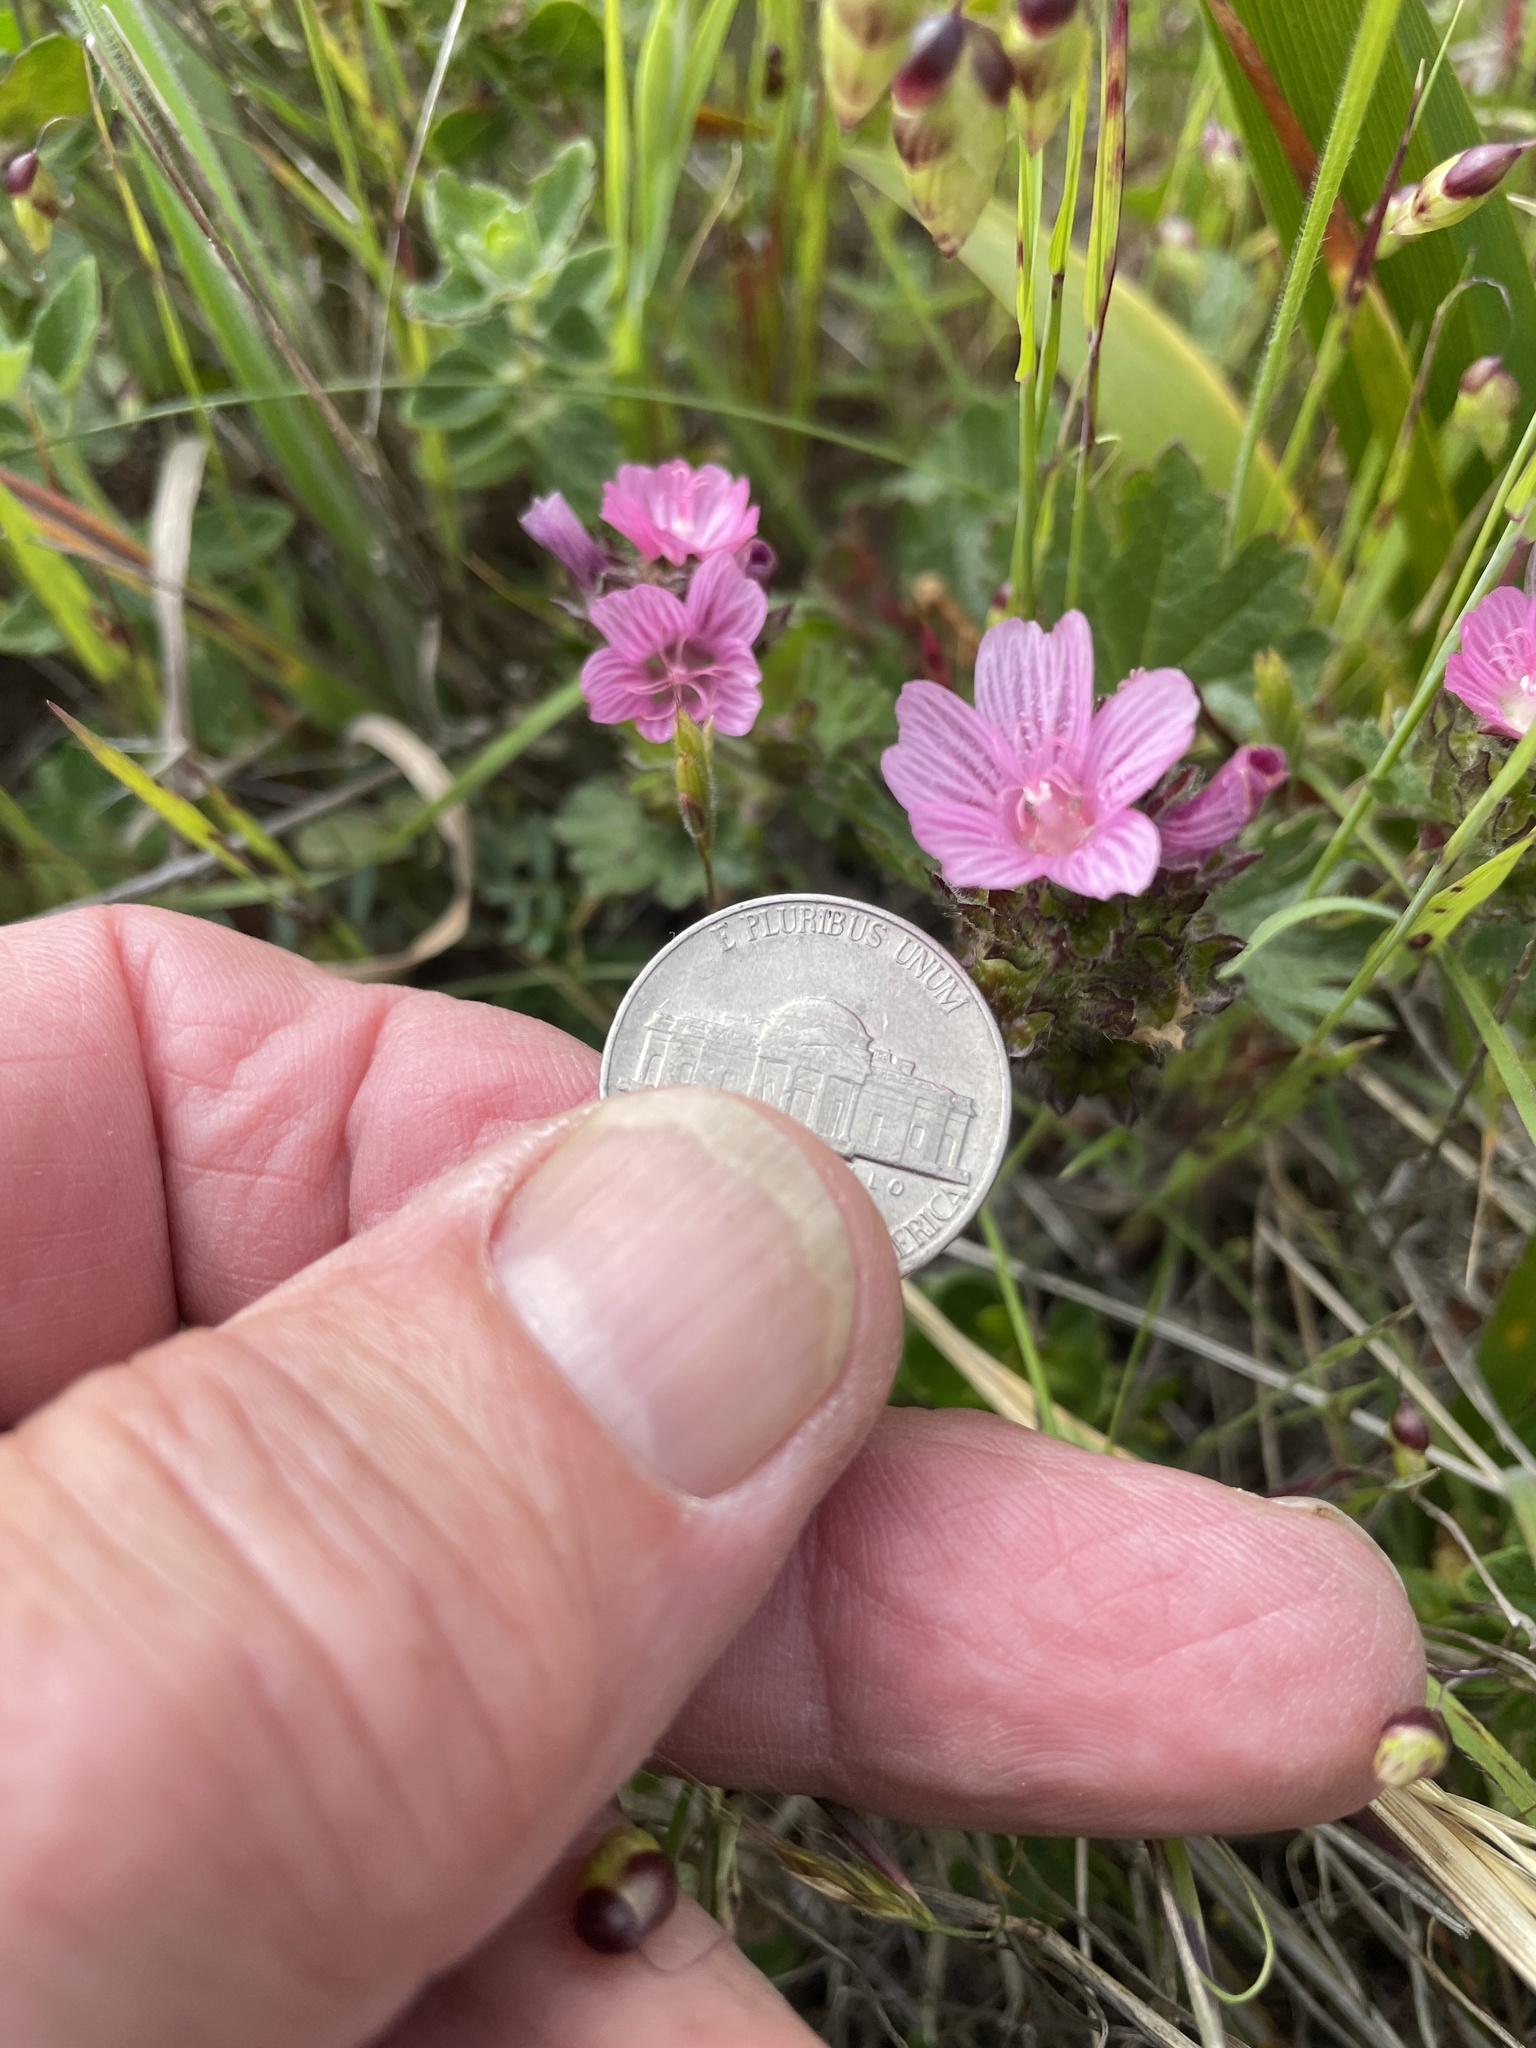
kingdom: Plantae
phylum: Tracheophyta
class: Magnoliopsida
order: Malvales
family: Malvaceae
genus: Sidalcea
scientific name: Sidalcea malviflora
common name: Greek mallow
